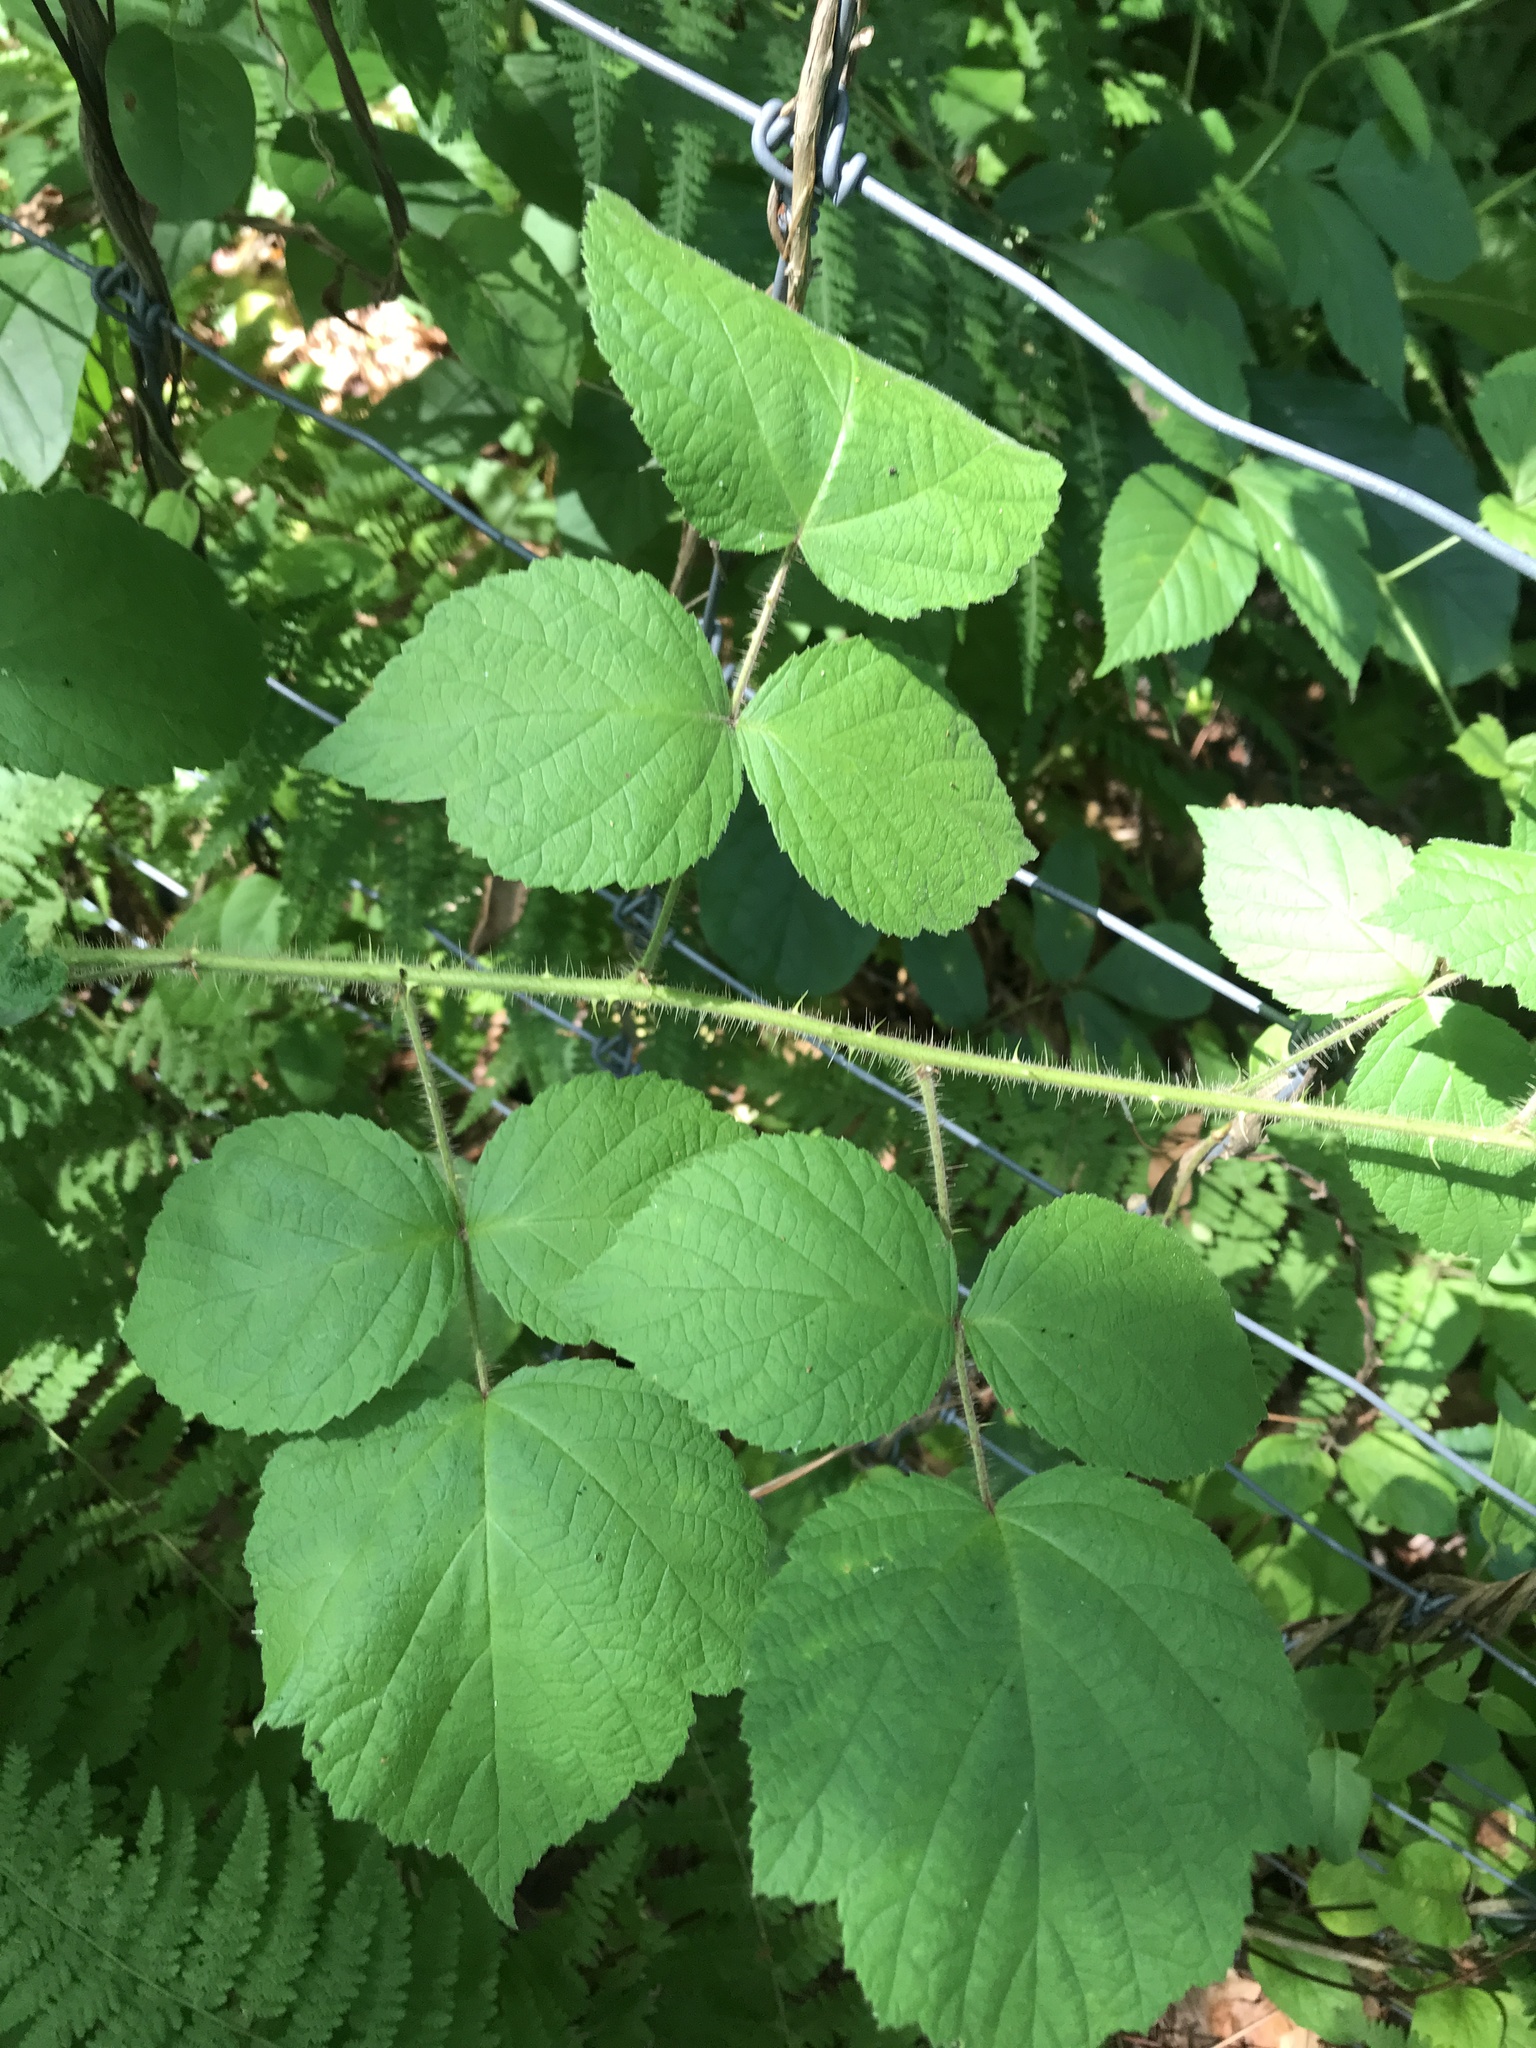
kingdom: Plantae
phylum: Tracheophyta
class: Magnoliopsida
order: Rosales
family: Rosaceae
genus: Rubus
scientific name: Rubus phoenicolasius
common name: Japanese wineberry
